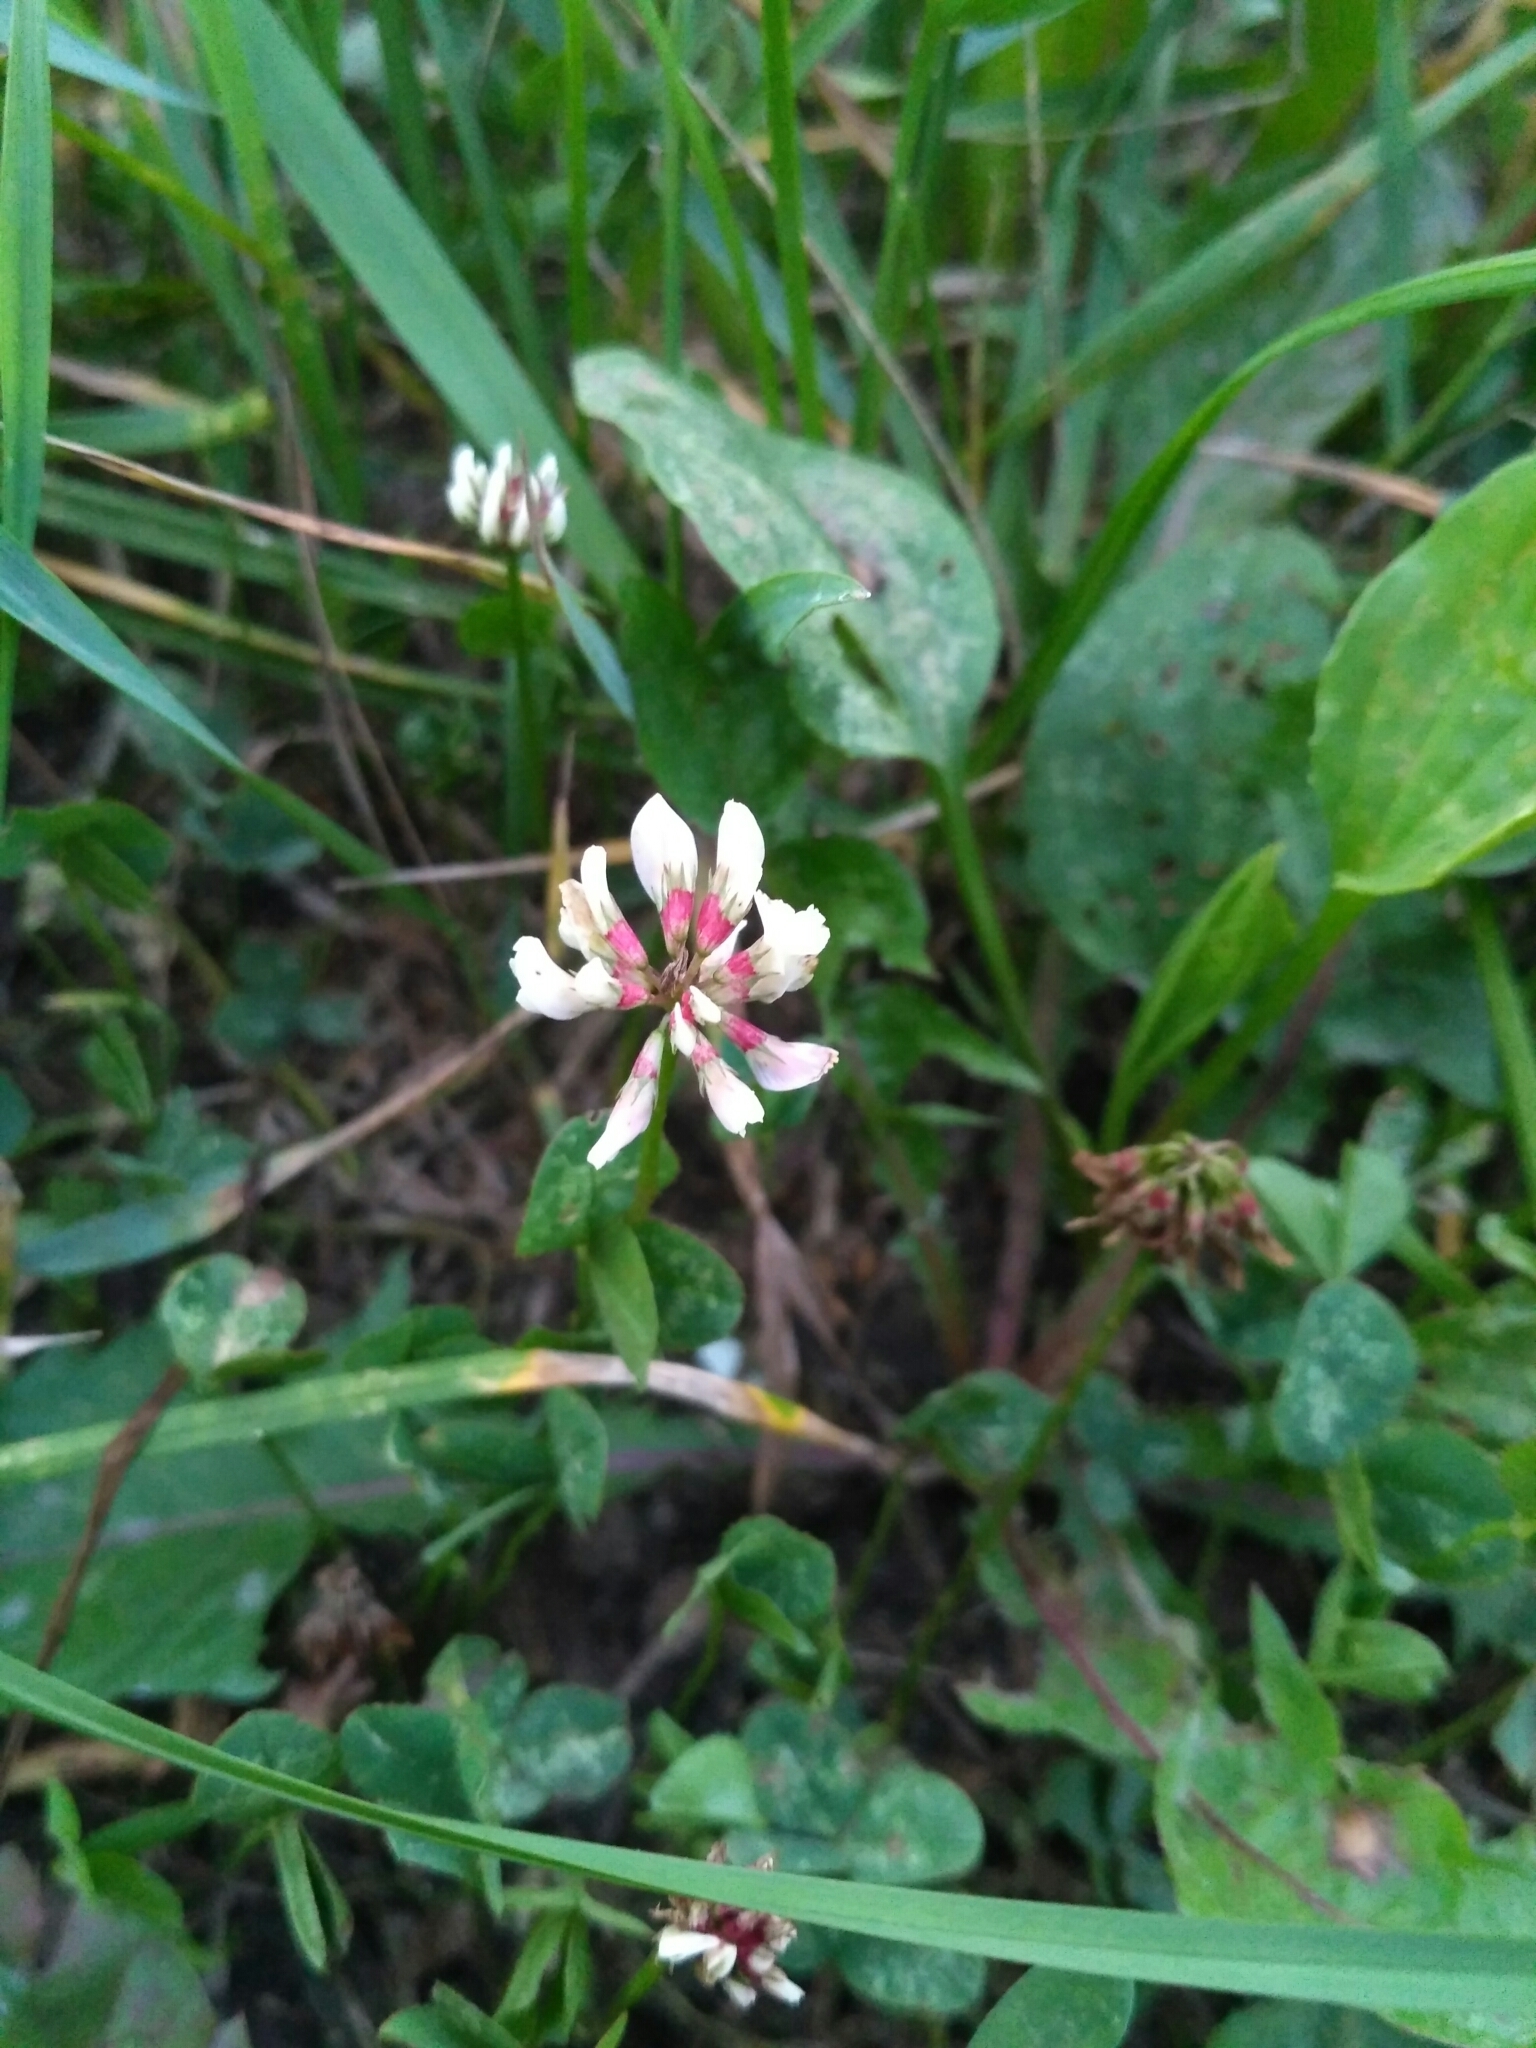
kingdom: Plantae
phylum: Tracheophyta
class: Magnoliopsida
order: Fabales
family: Fabaceae
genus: Trifolium
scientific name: Trifolium repens
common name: White clover
